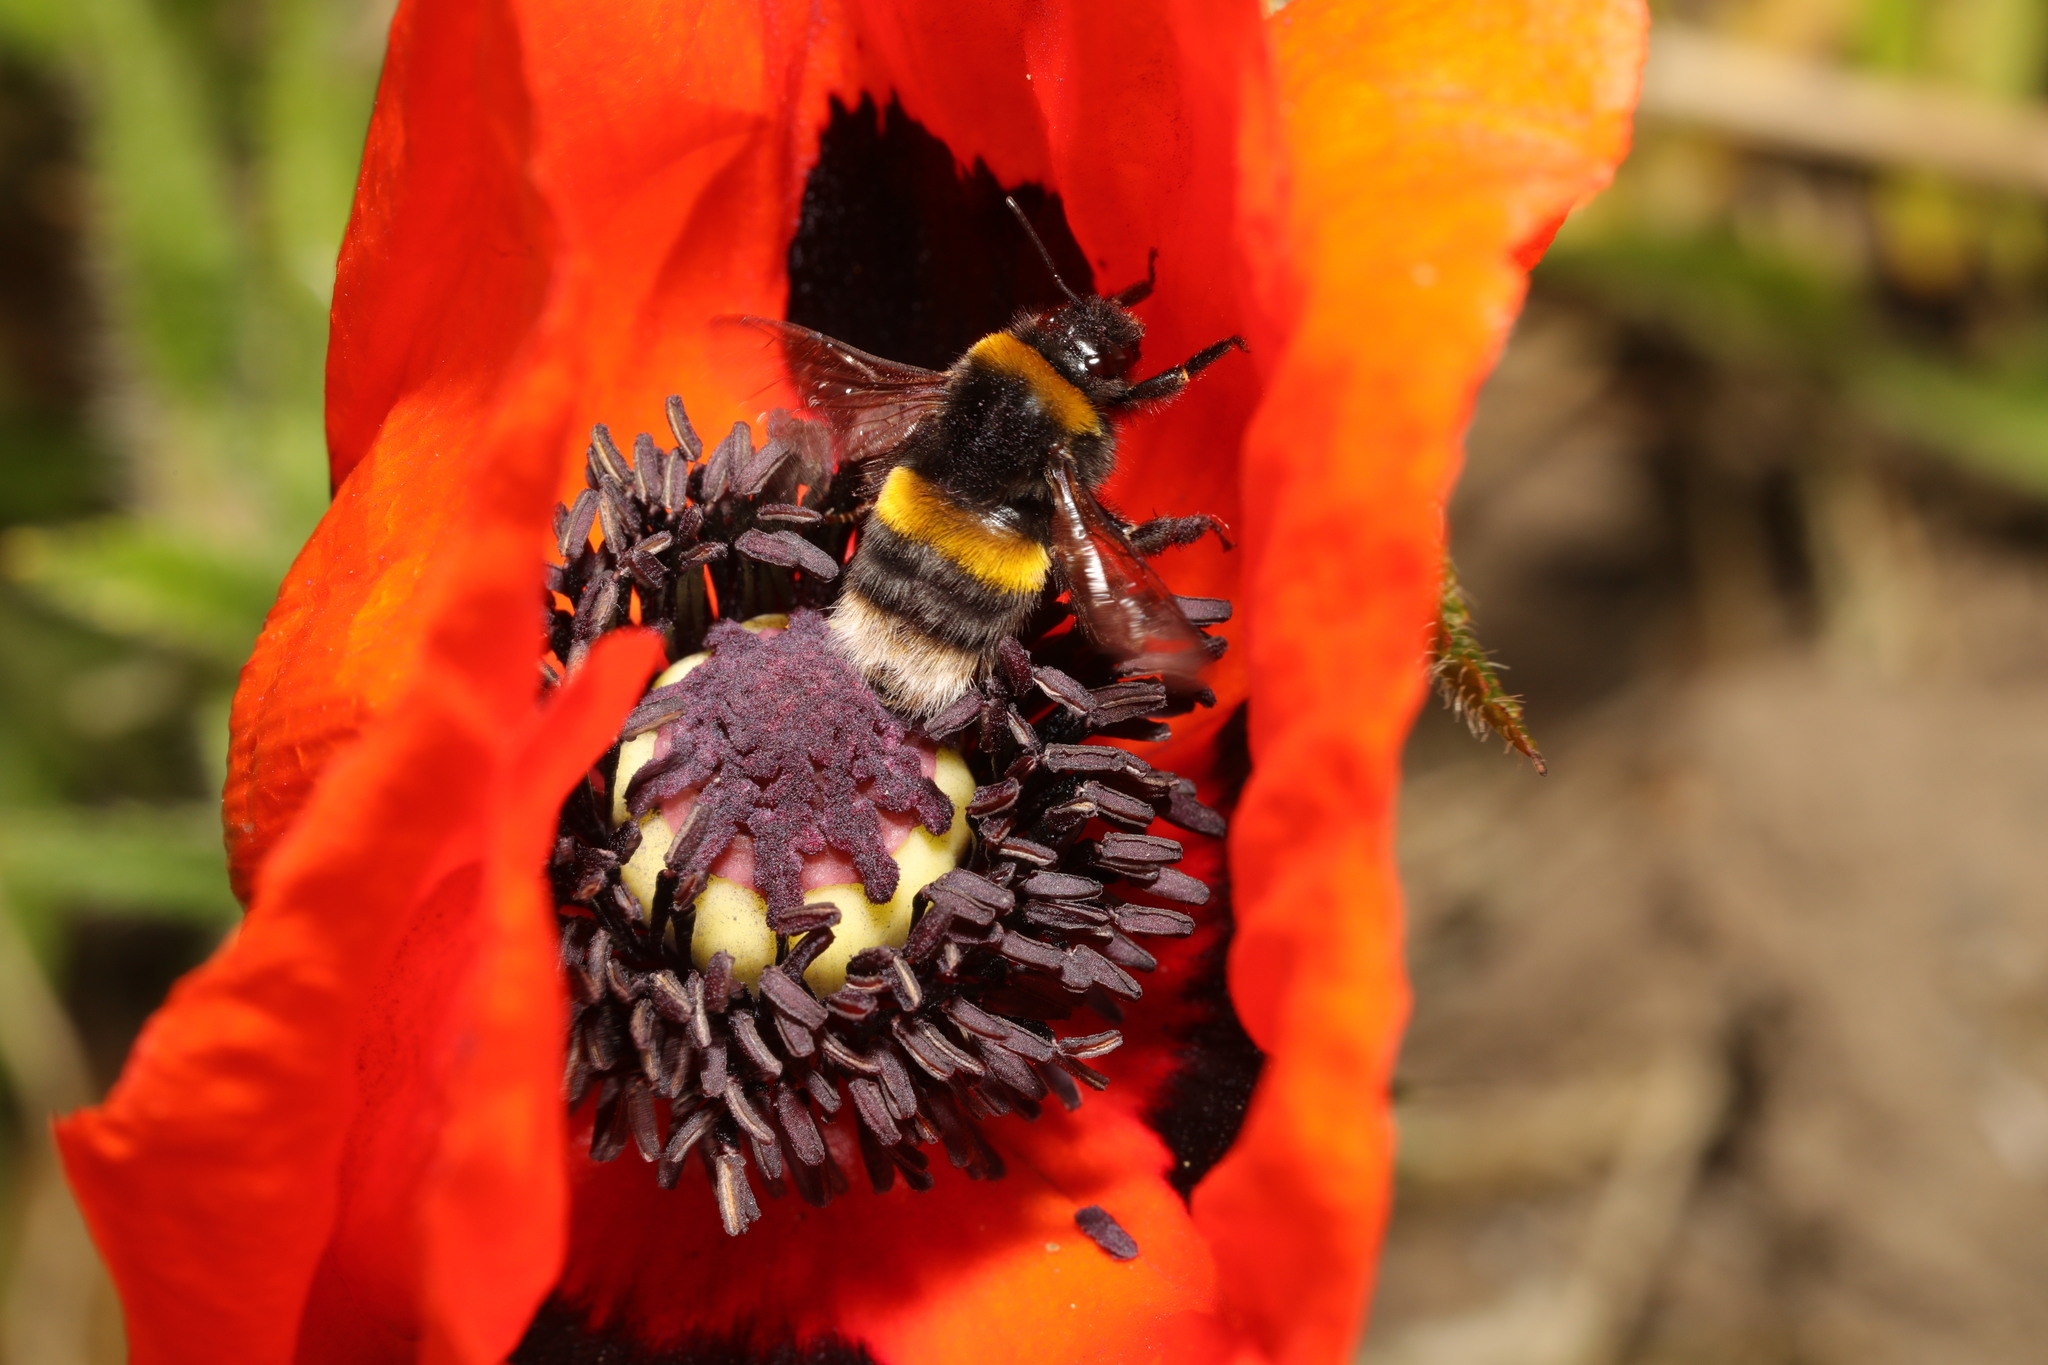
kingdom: Animalia
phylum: Arthropoda
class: Insecta
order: Hymenoptera
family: Apidae
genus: Bombus
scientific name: Bombus terrestris
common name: Buff-tailed bumblebee
